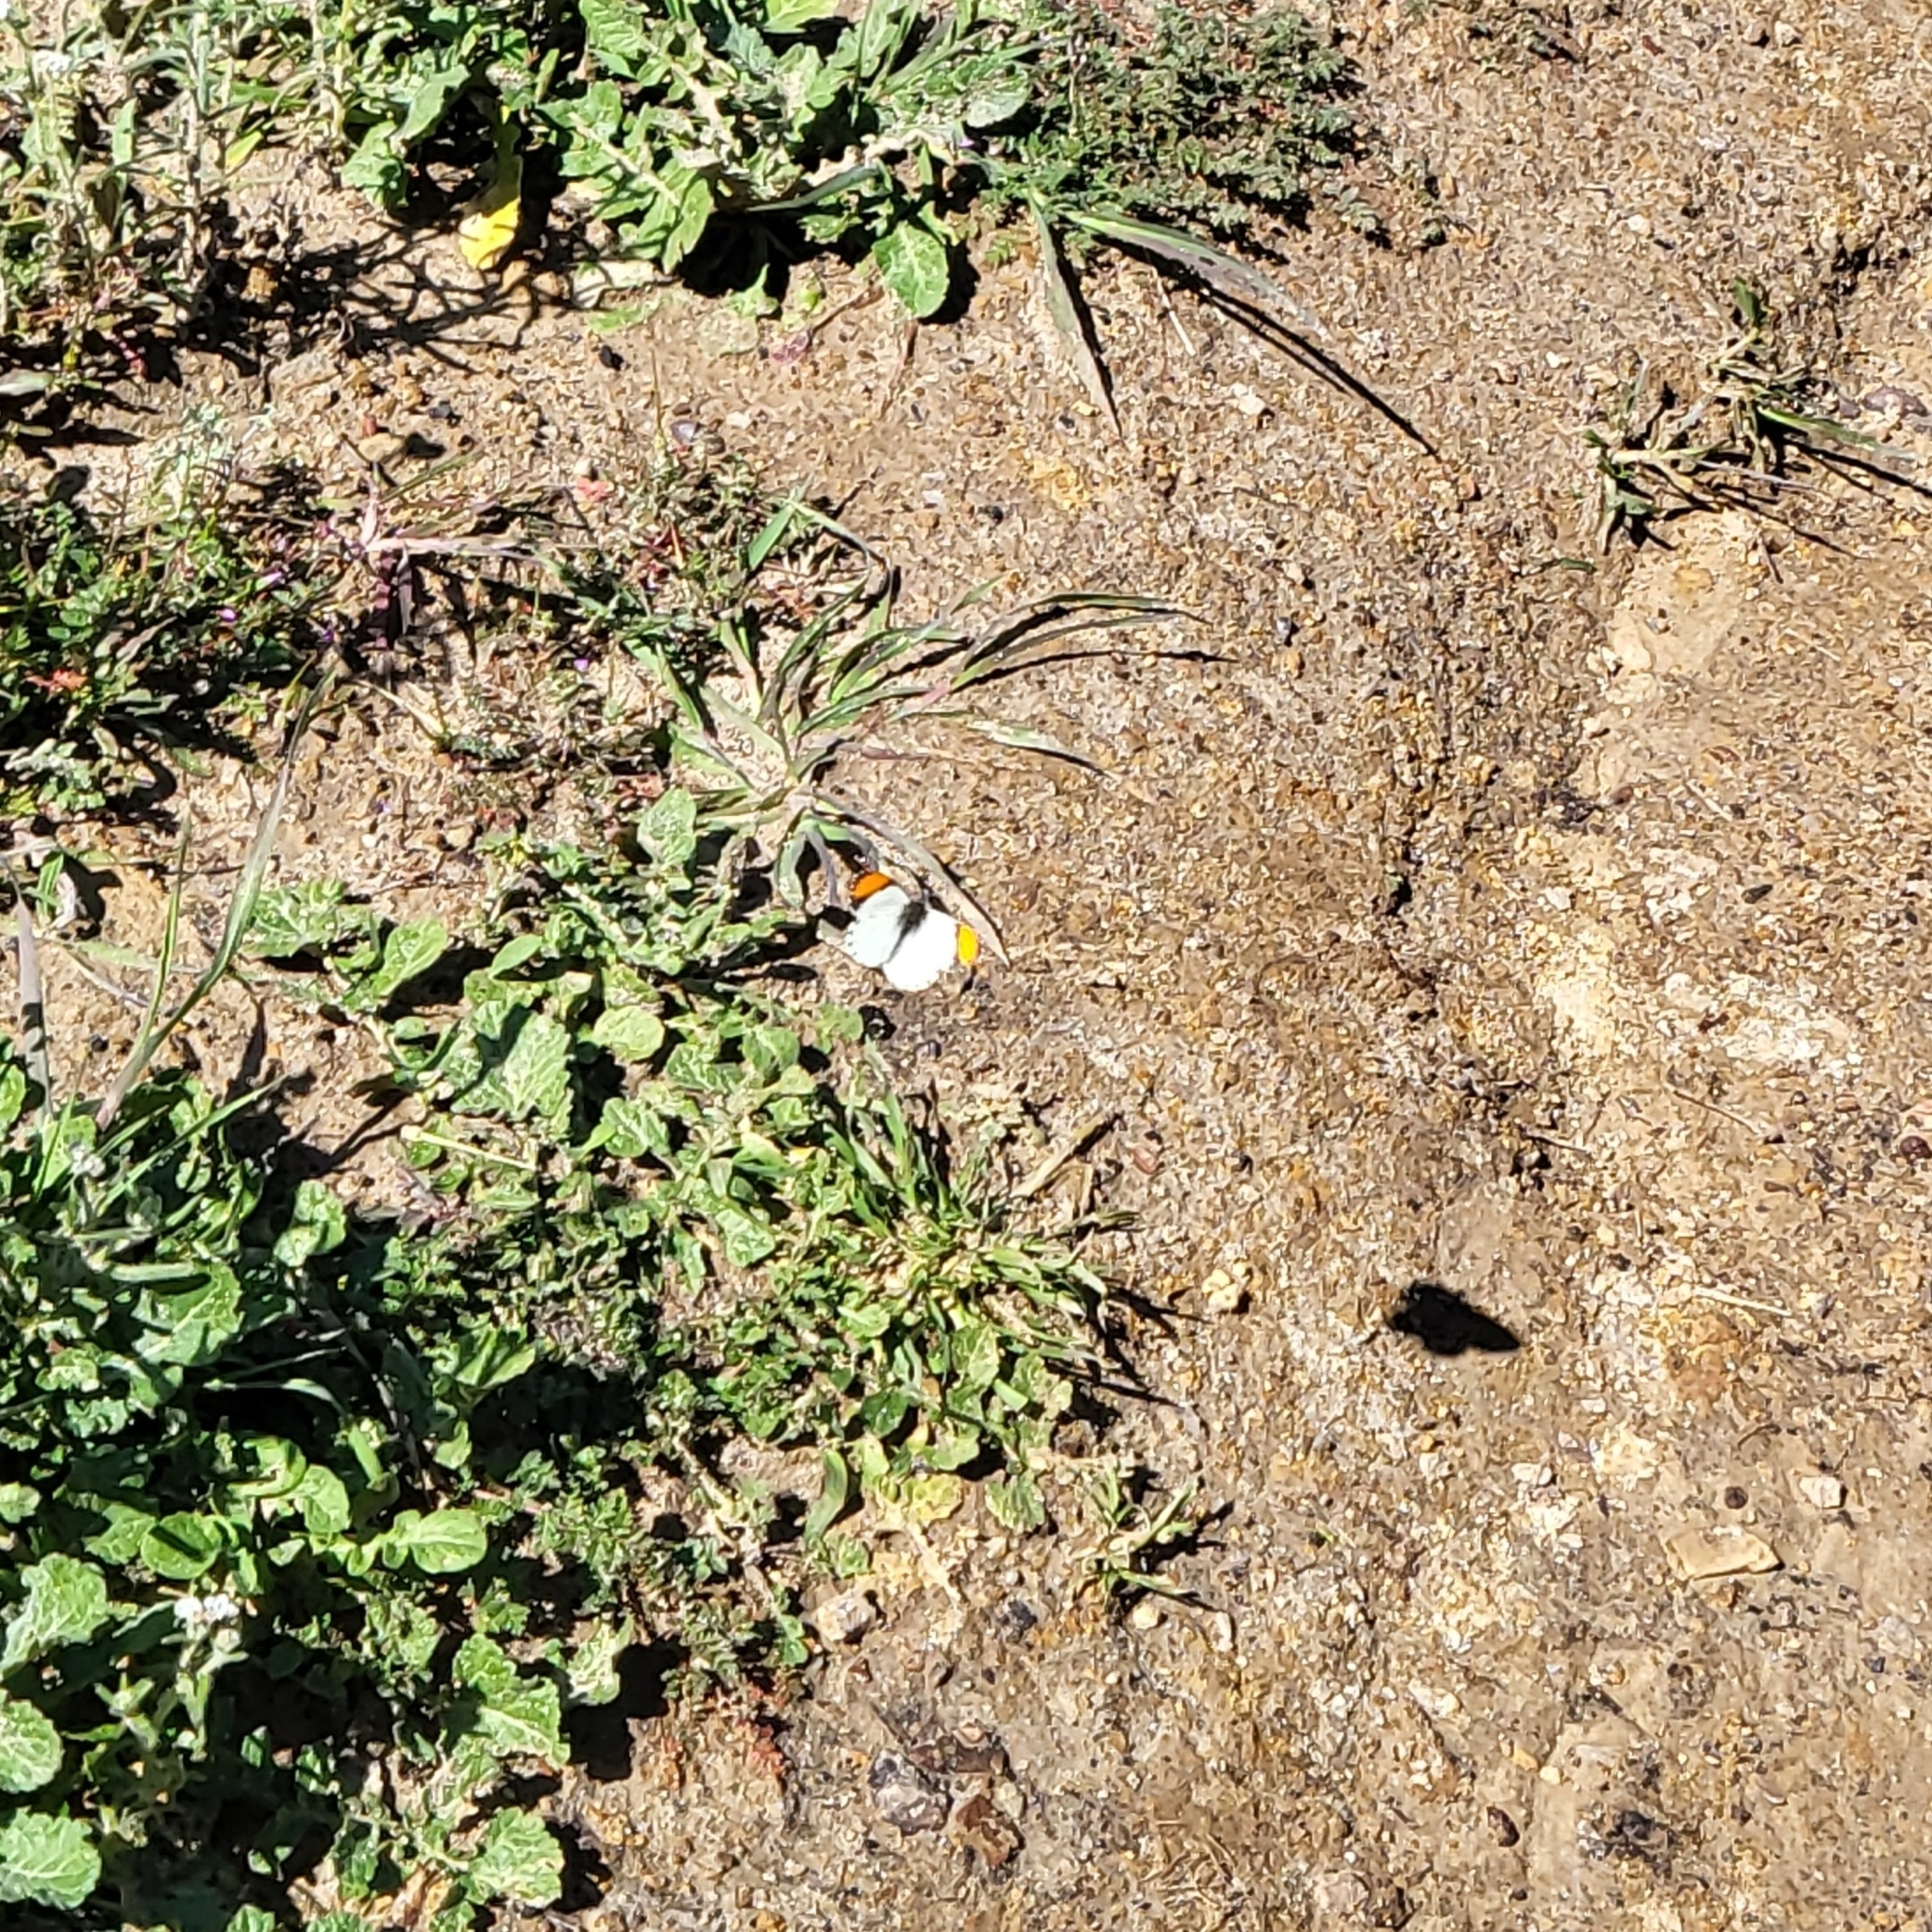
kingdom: Animalia
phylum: Arthropoda
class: Insecta
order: Lepidoptera
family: Pieridae
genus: Anthocharis
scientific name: Anthocharis sara
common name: Sara's orangetip
